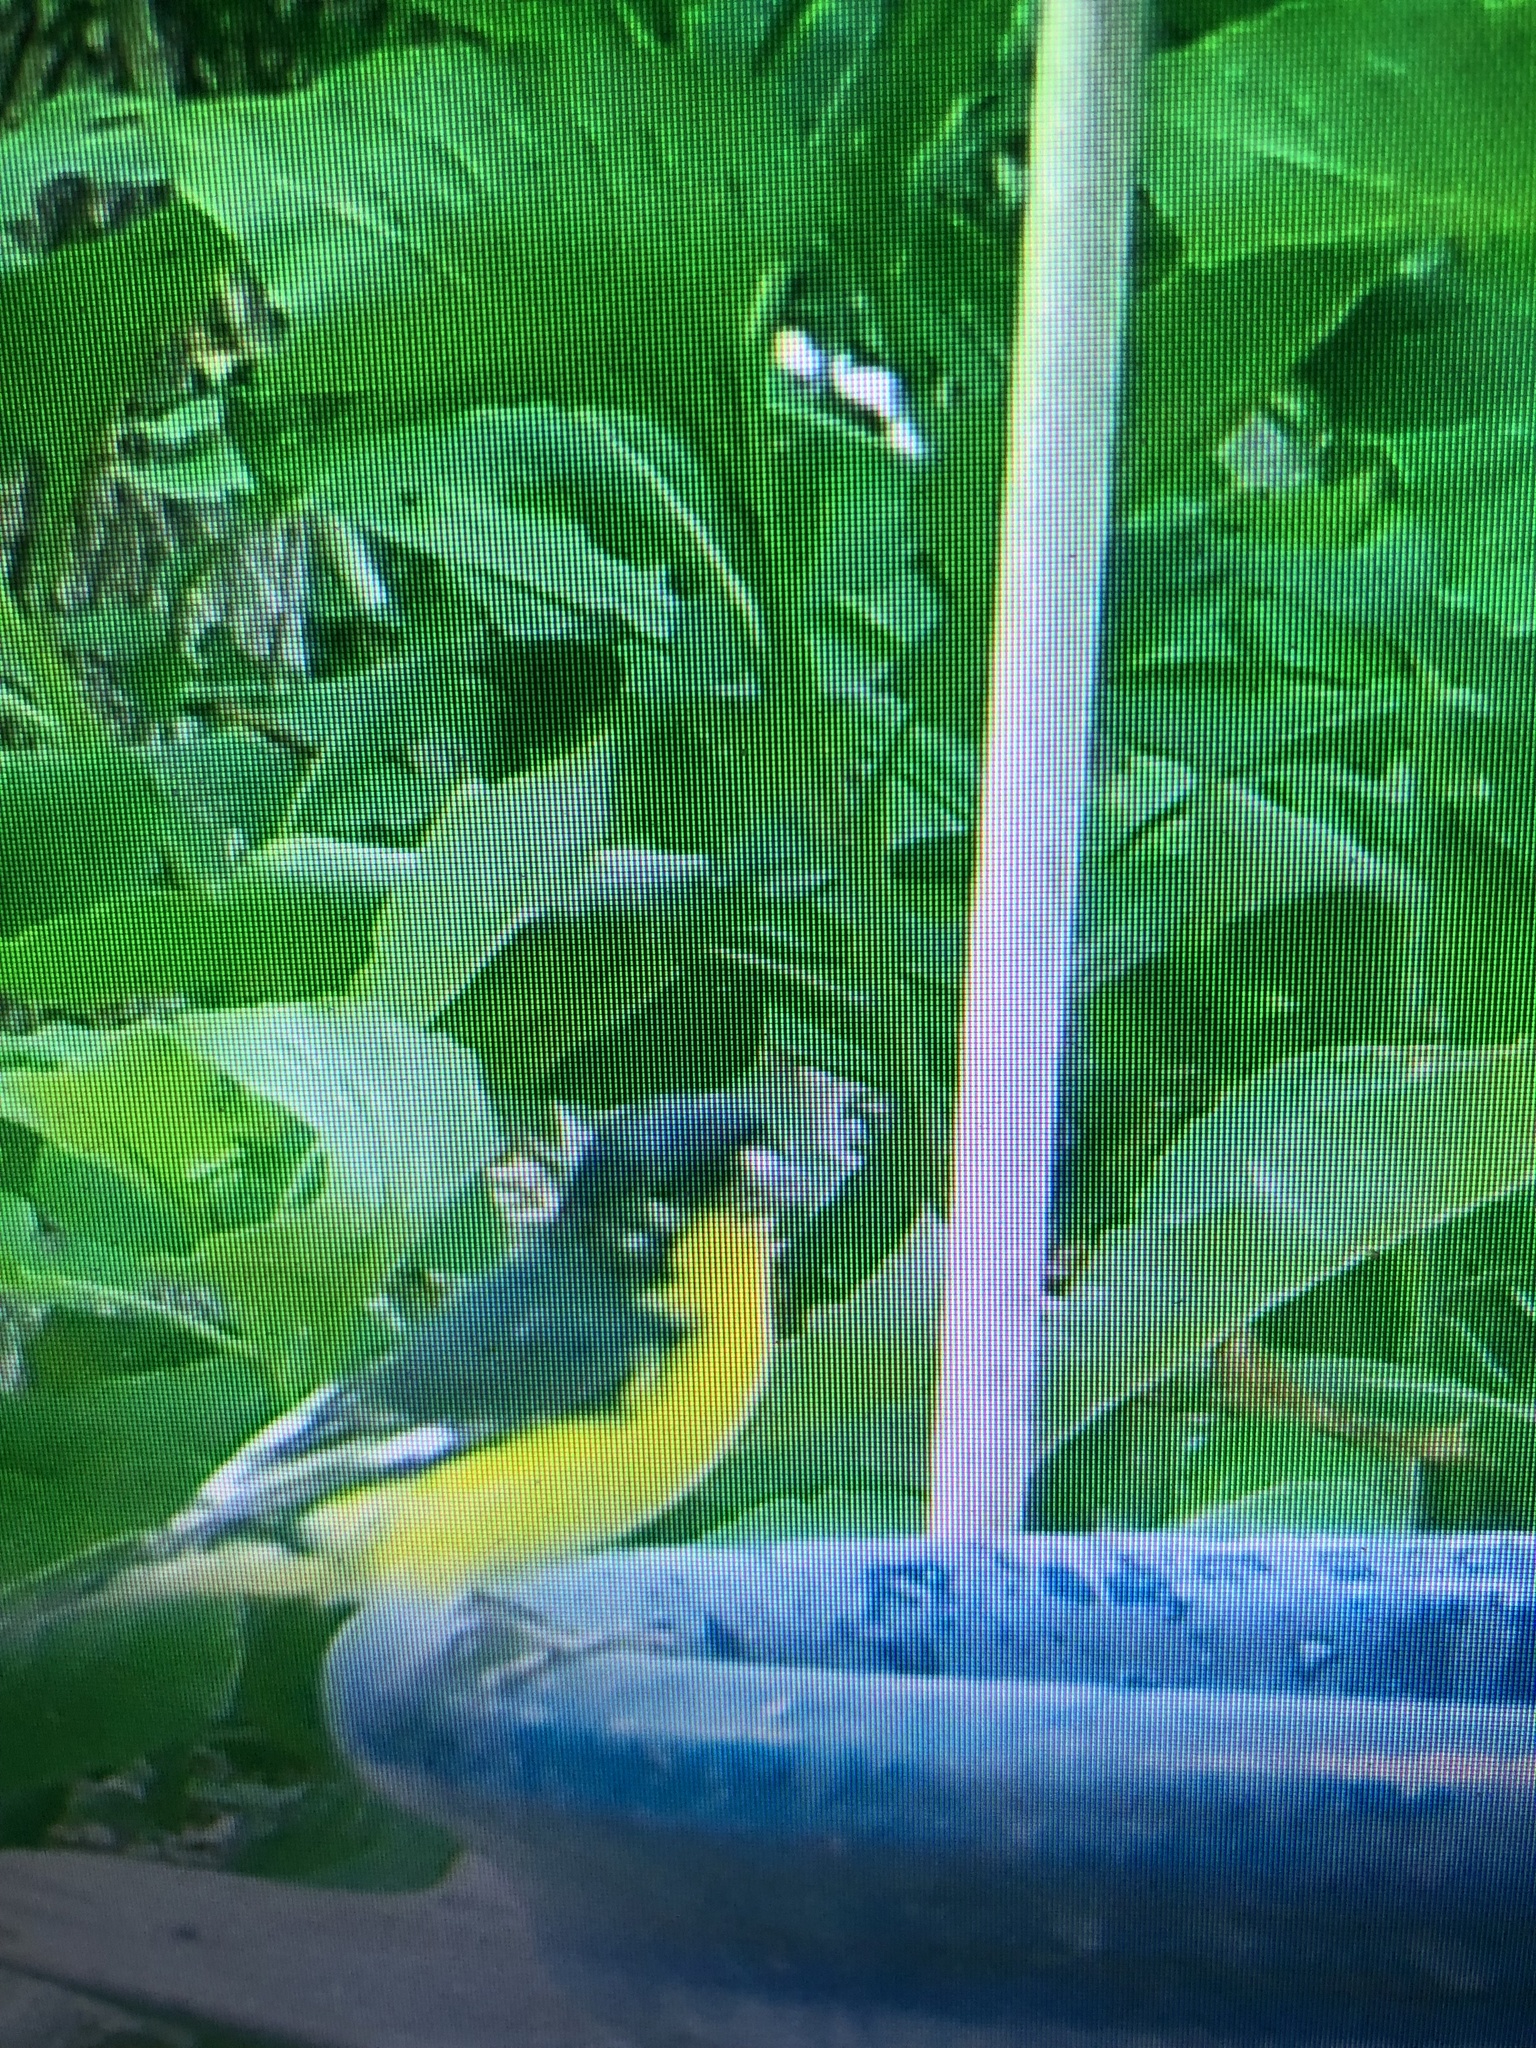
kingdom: Animalia
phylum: Chordata
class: Aves
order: Passeriformes
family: Fringillidae
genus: Spinus
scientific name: Spinus psaltria
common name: Lesser goldfinch
